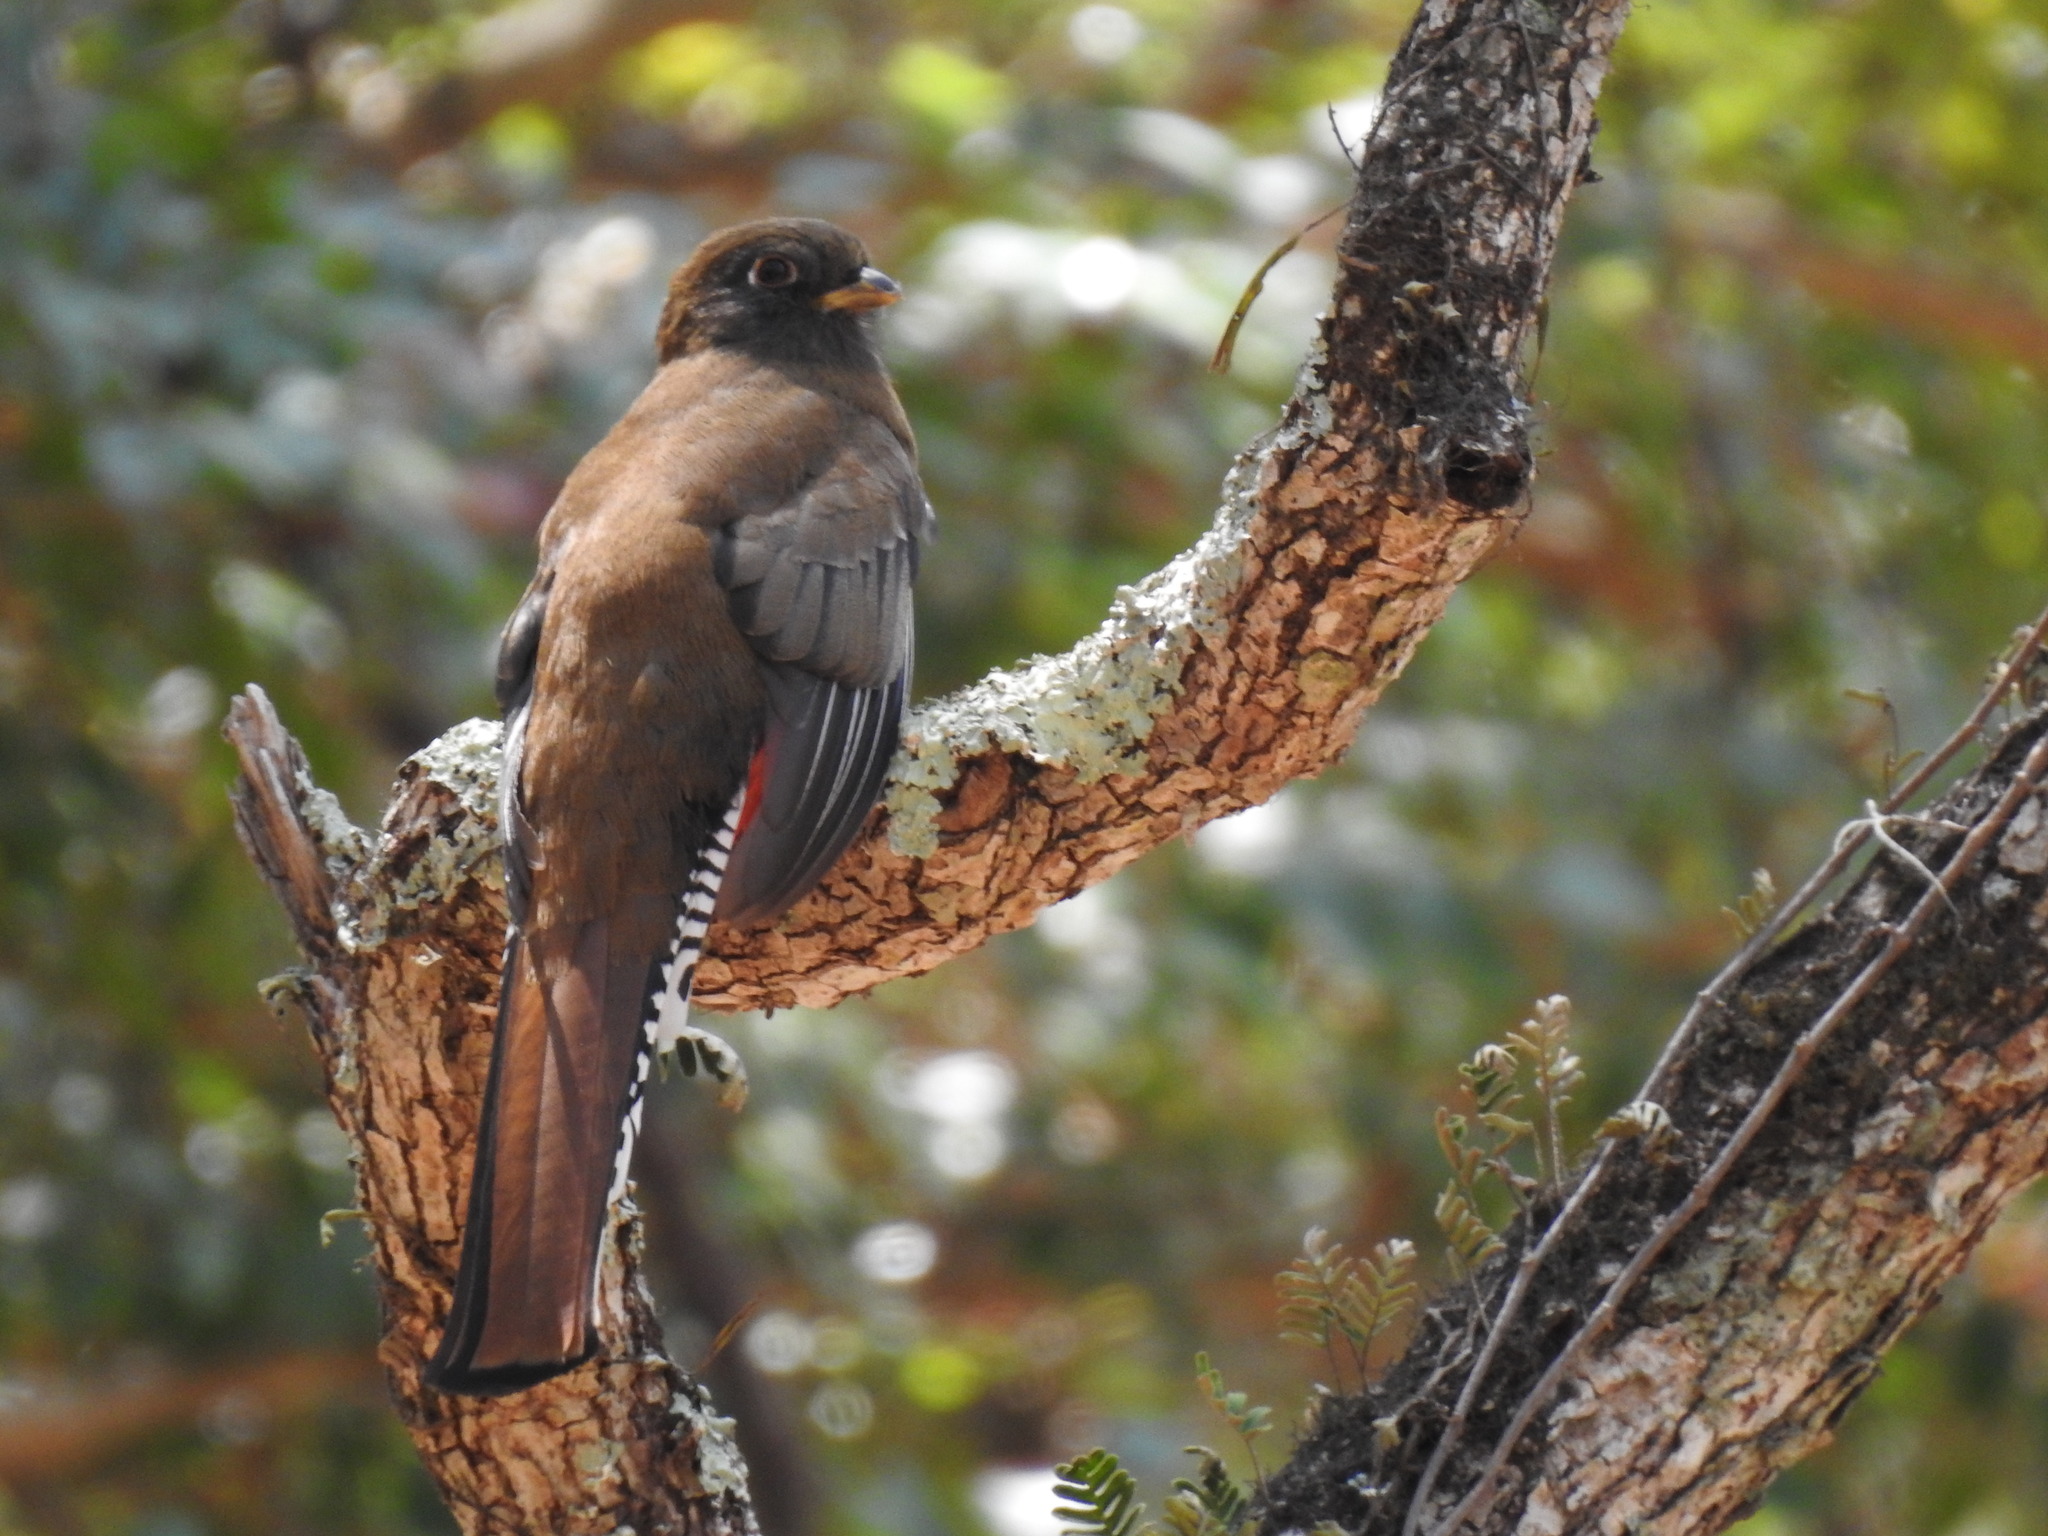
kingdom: Animalia
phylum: Chordata
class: Aves
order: Trogoniformes
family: Trogonidae
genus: Trogon
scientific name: Trogon mexicanus
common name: Mountain trogon
